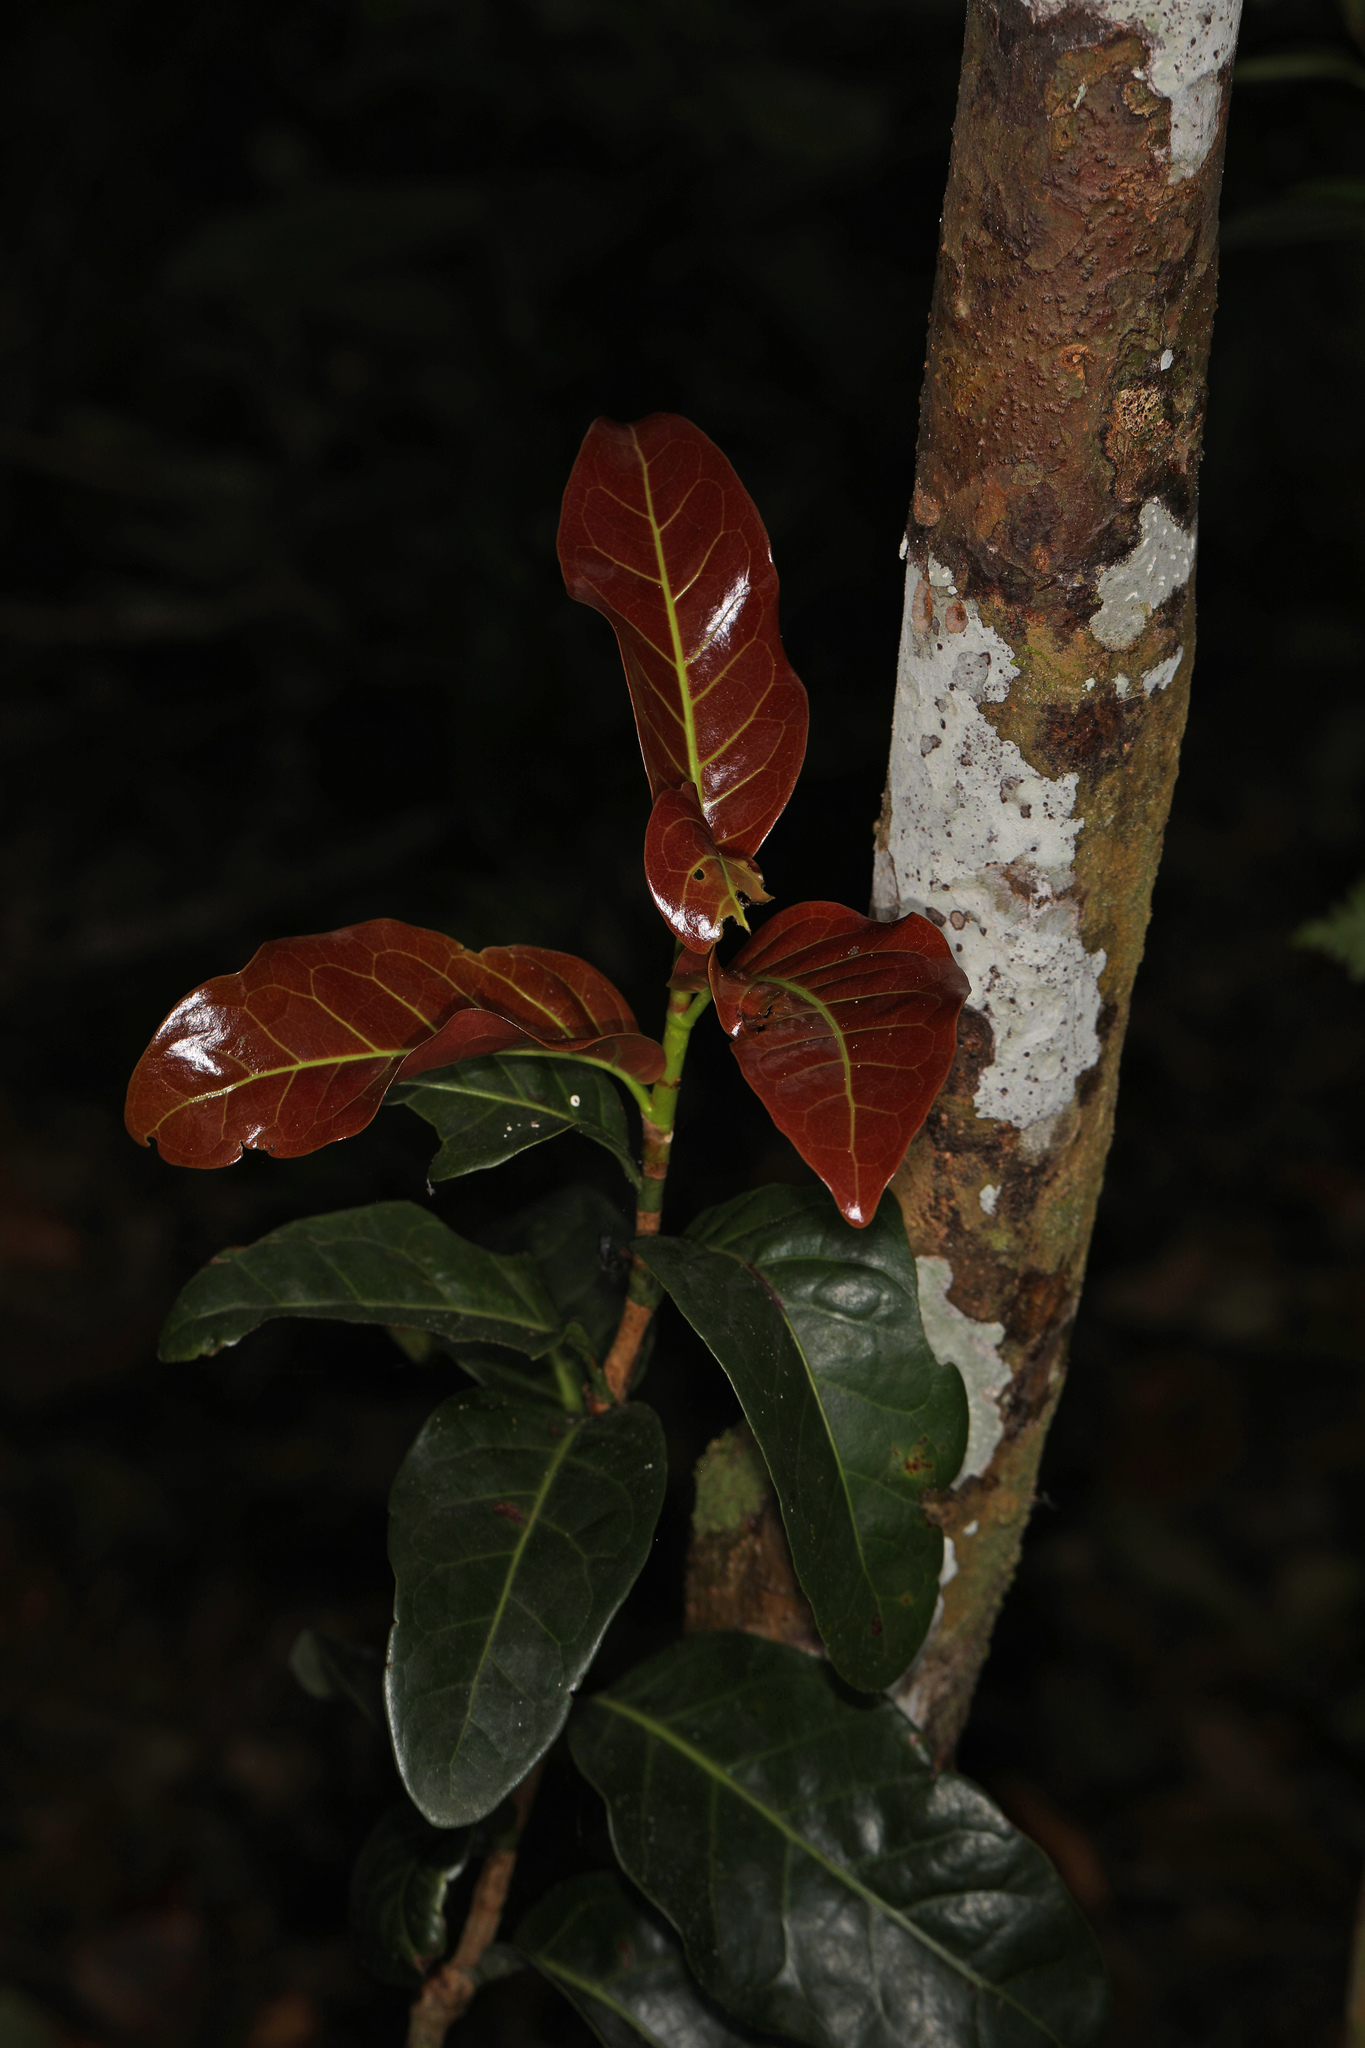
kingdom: Plantae
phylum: Tracheophyta
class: Magnoliopsida
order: Caryophyllales
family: Polygonaceae
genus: Coccoloba
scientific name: Coccoloba diversifolia
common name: Pigeon-plum
